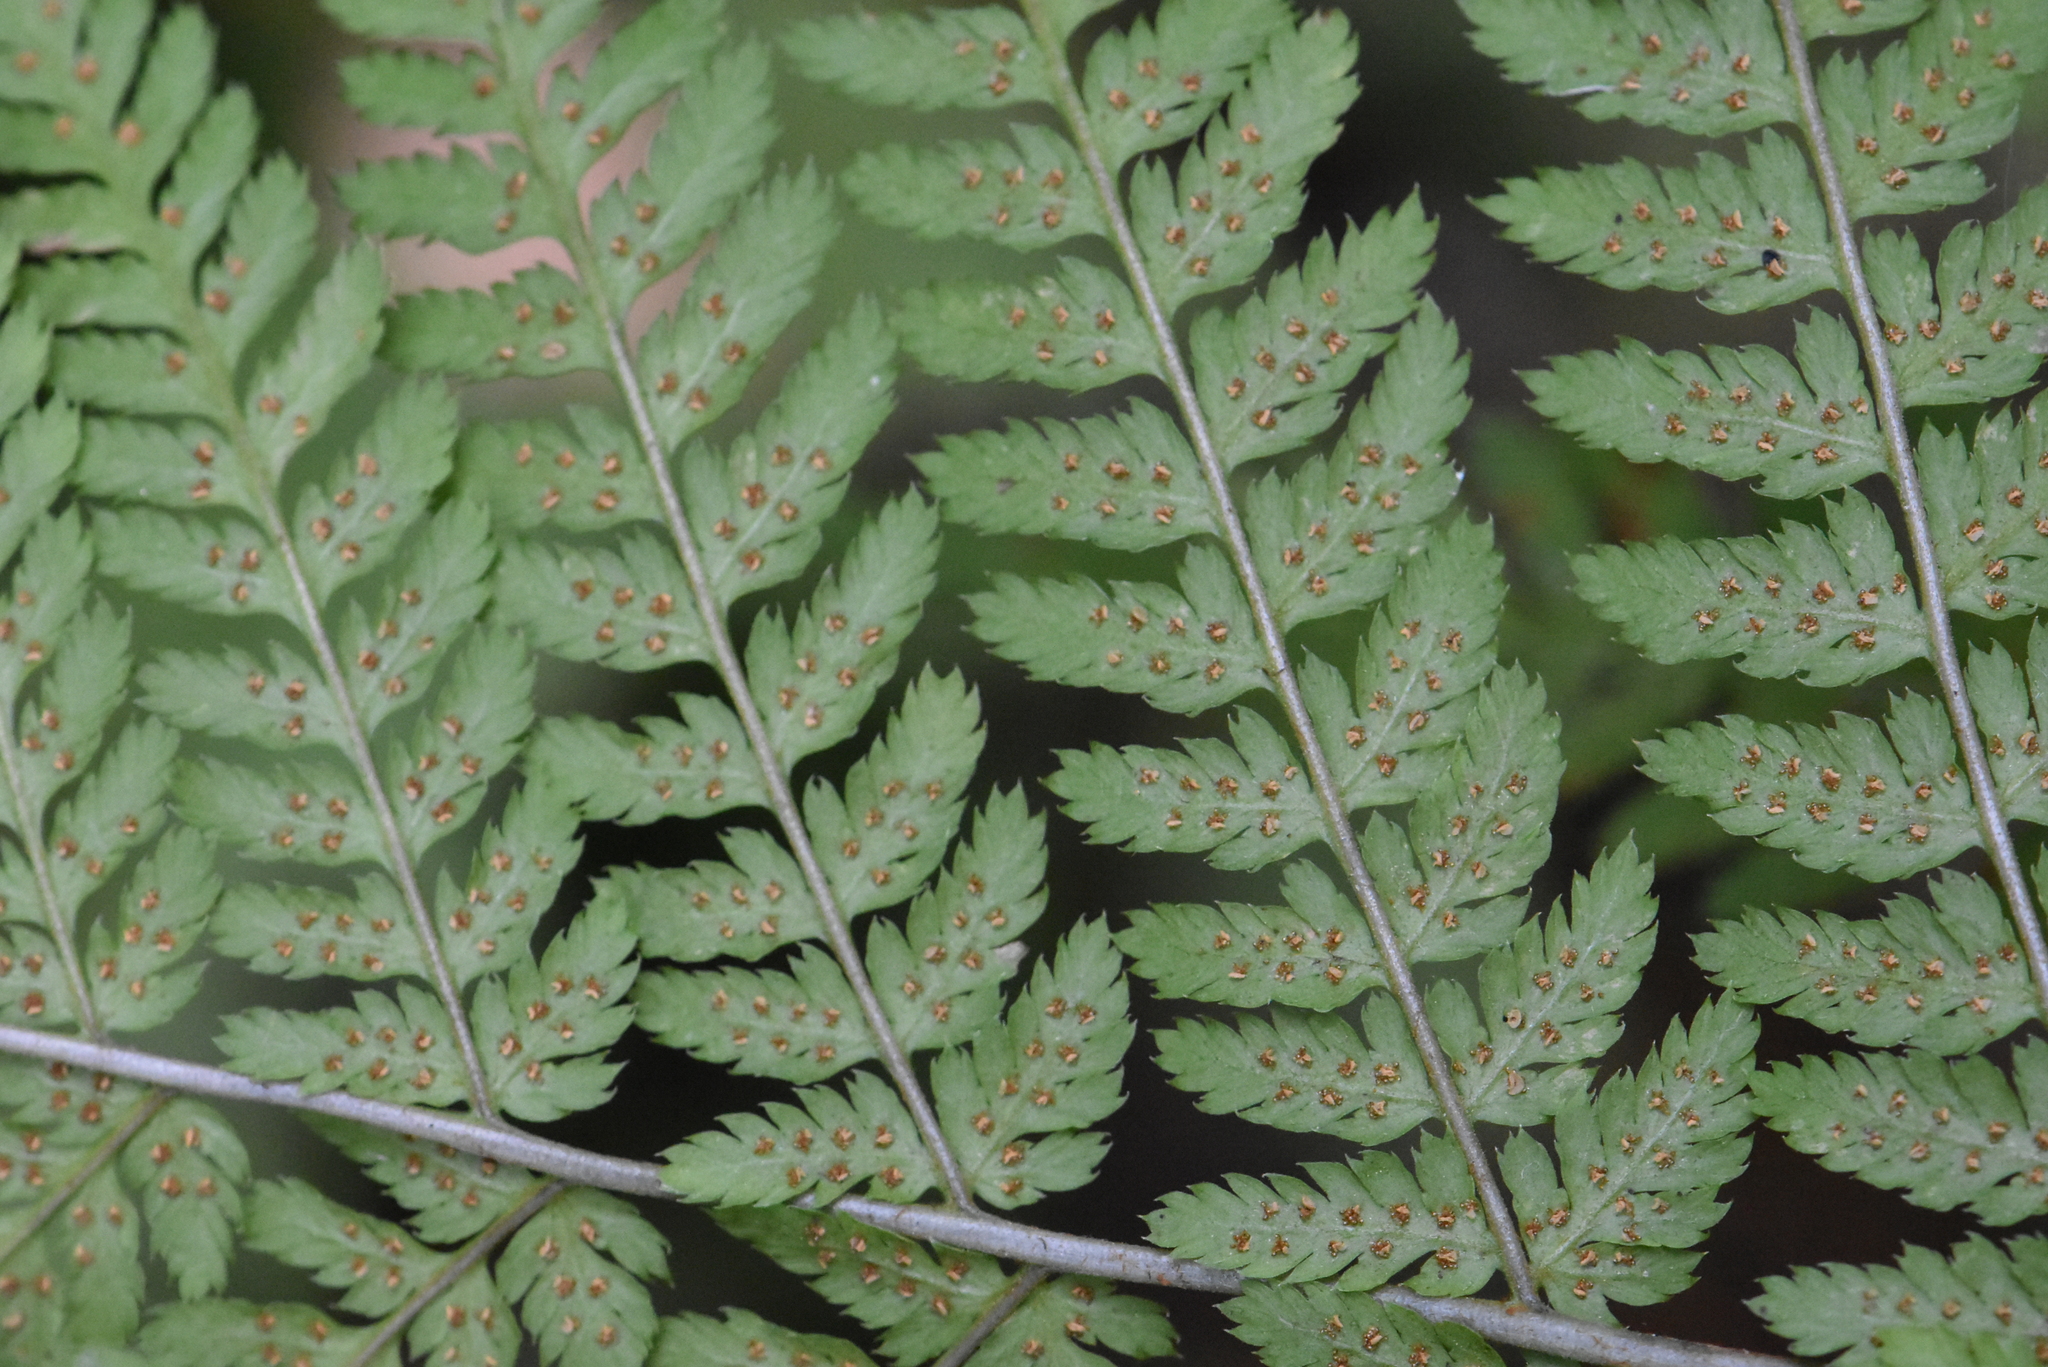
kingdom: Plantae
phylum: Tracheophyta
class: Polypodiopsida
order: Polypodiales
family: Dryopteridaceae
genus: Dryopteris
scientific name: Dryopteris expansa
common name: Northern buckler fern
